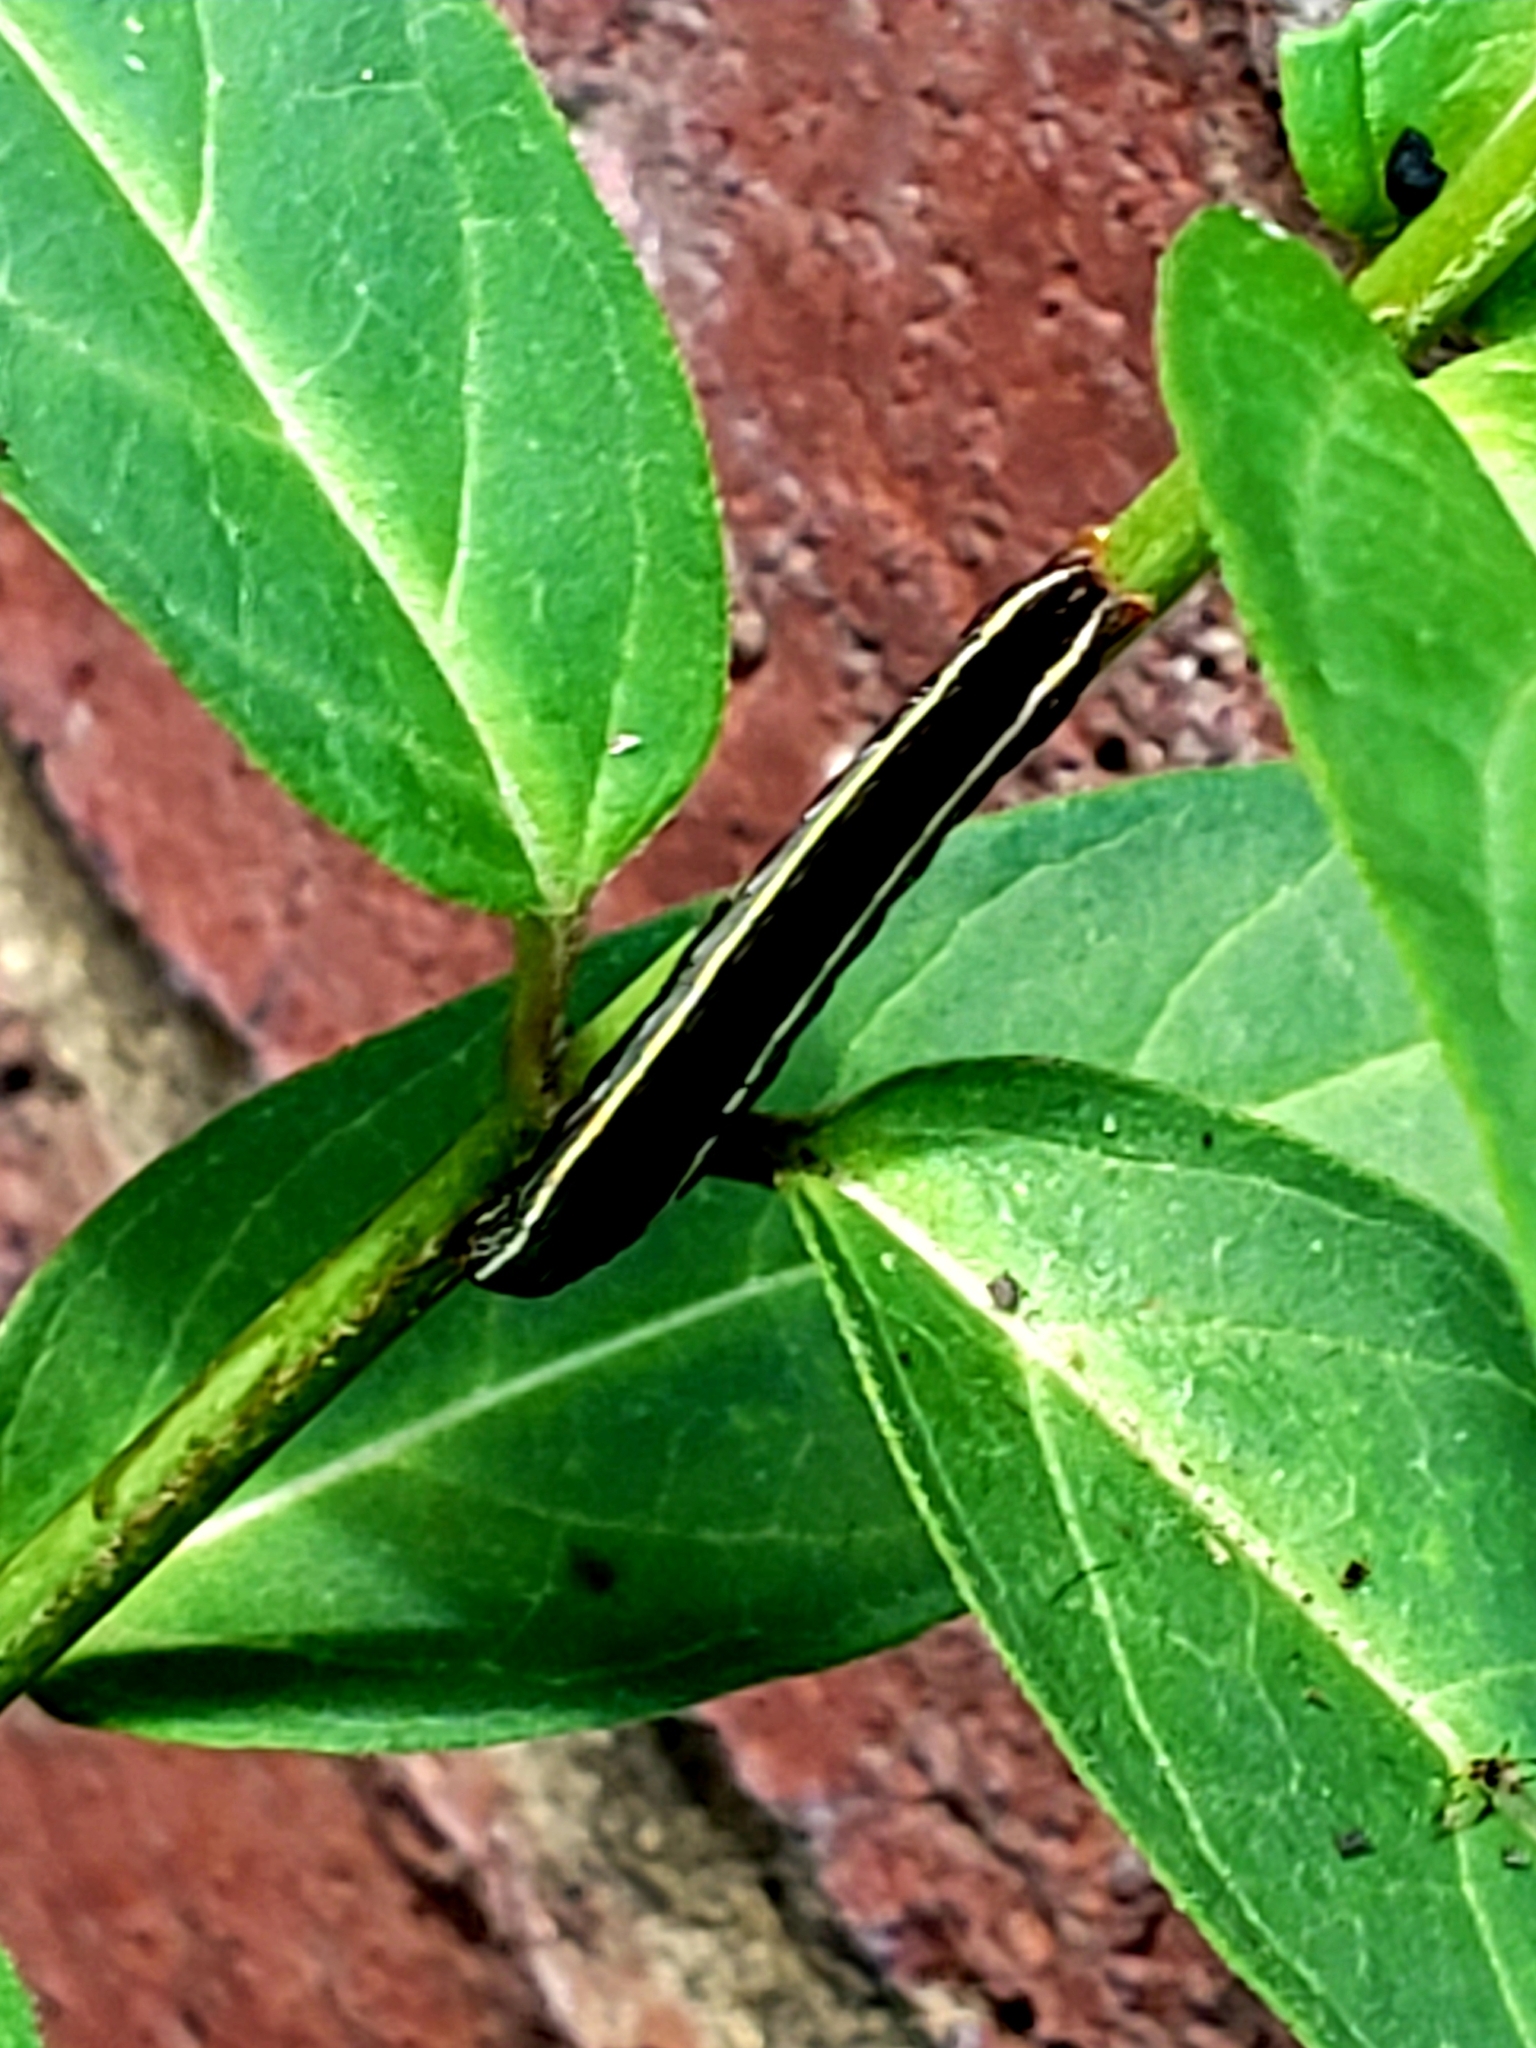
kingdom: Animalia
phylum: Arthropoda
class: Insecta
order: Lepidoptera
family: Noctuidae
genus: Spodoptera
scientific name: Spodoptera ornithogalli
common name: Yellow-striped armyworm
